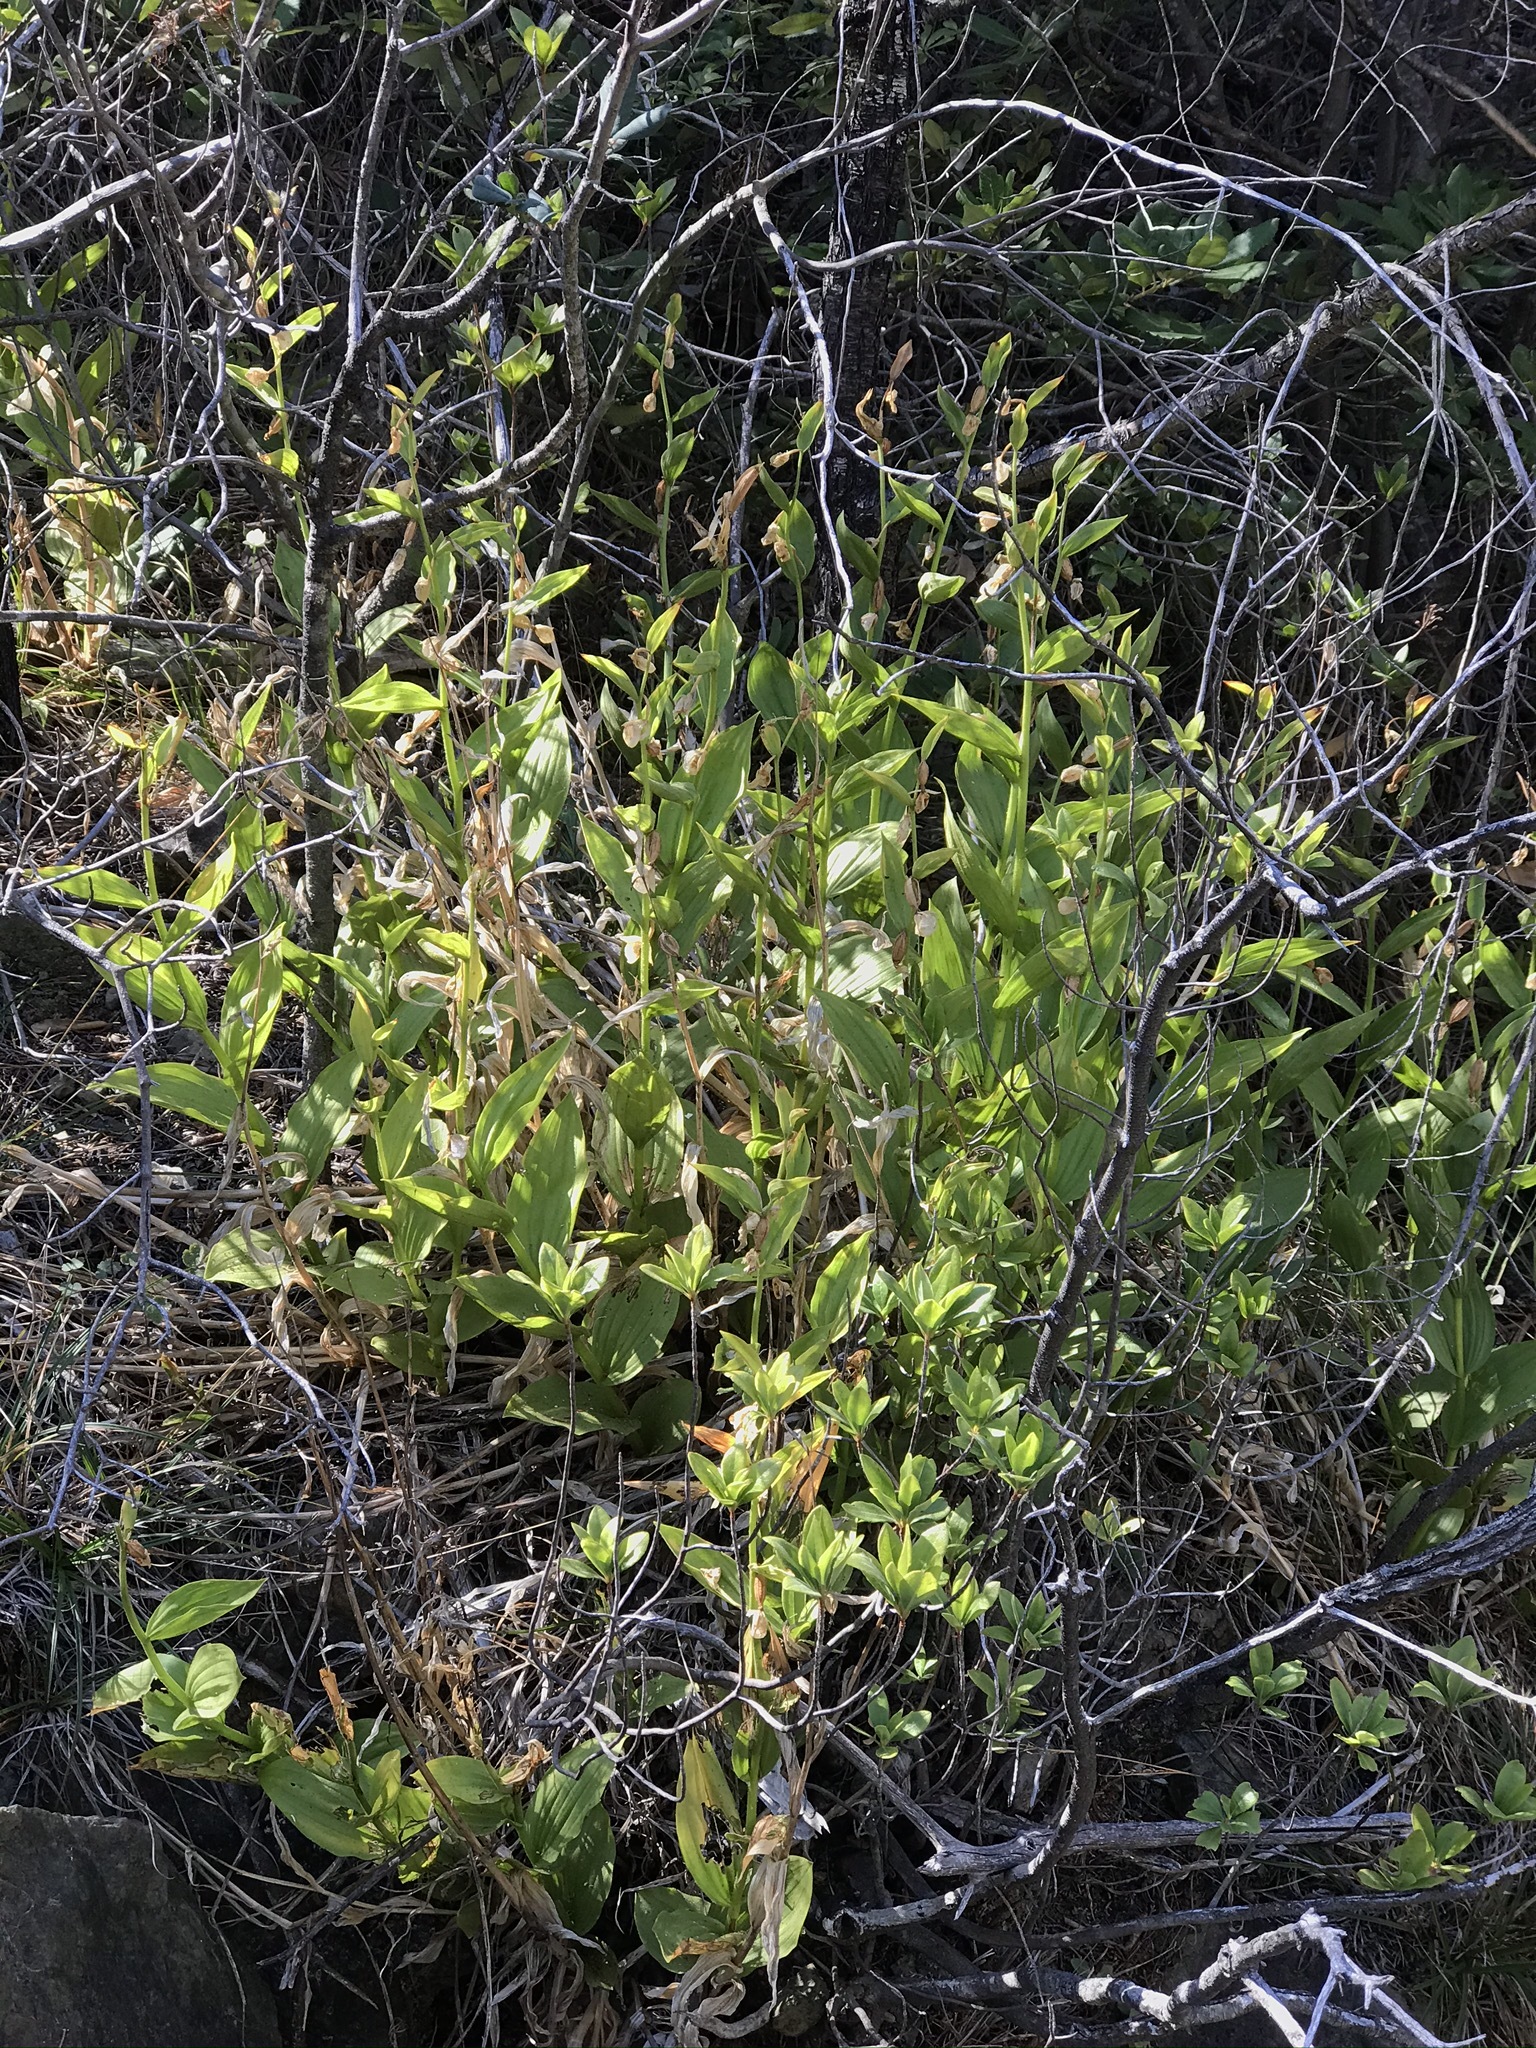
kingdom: Plantae
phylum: Tracheophyta
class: Liliopsida
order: Asparagales
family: Orchidaceae
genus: Cypripedium
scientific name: Cypripedium californicum
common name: California lady's slipper
